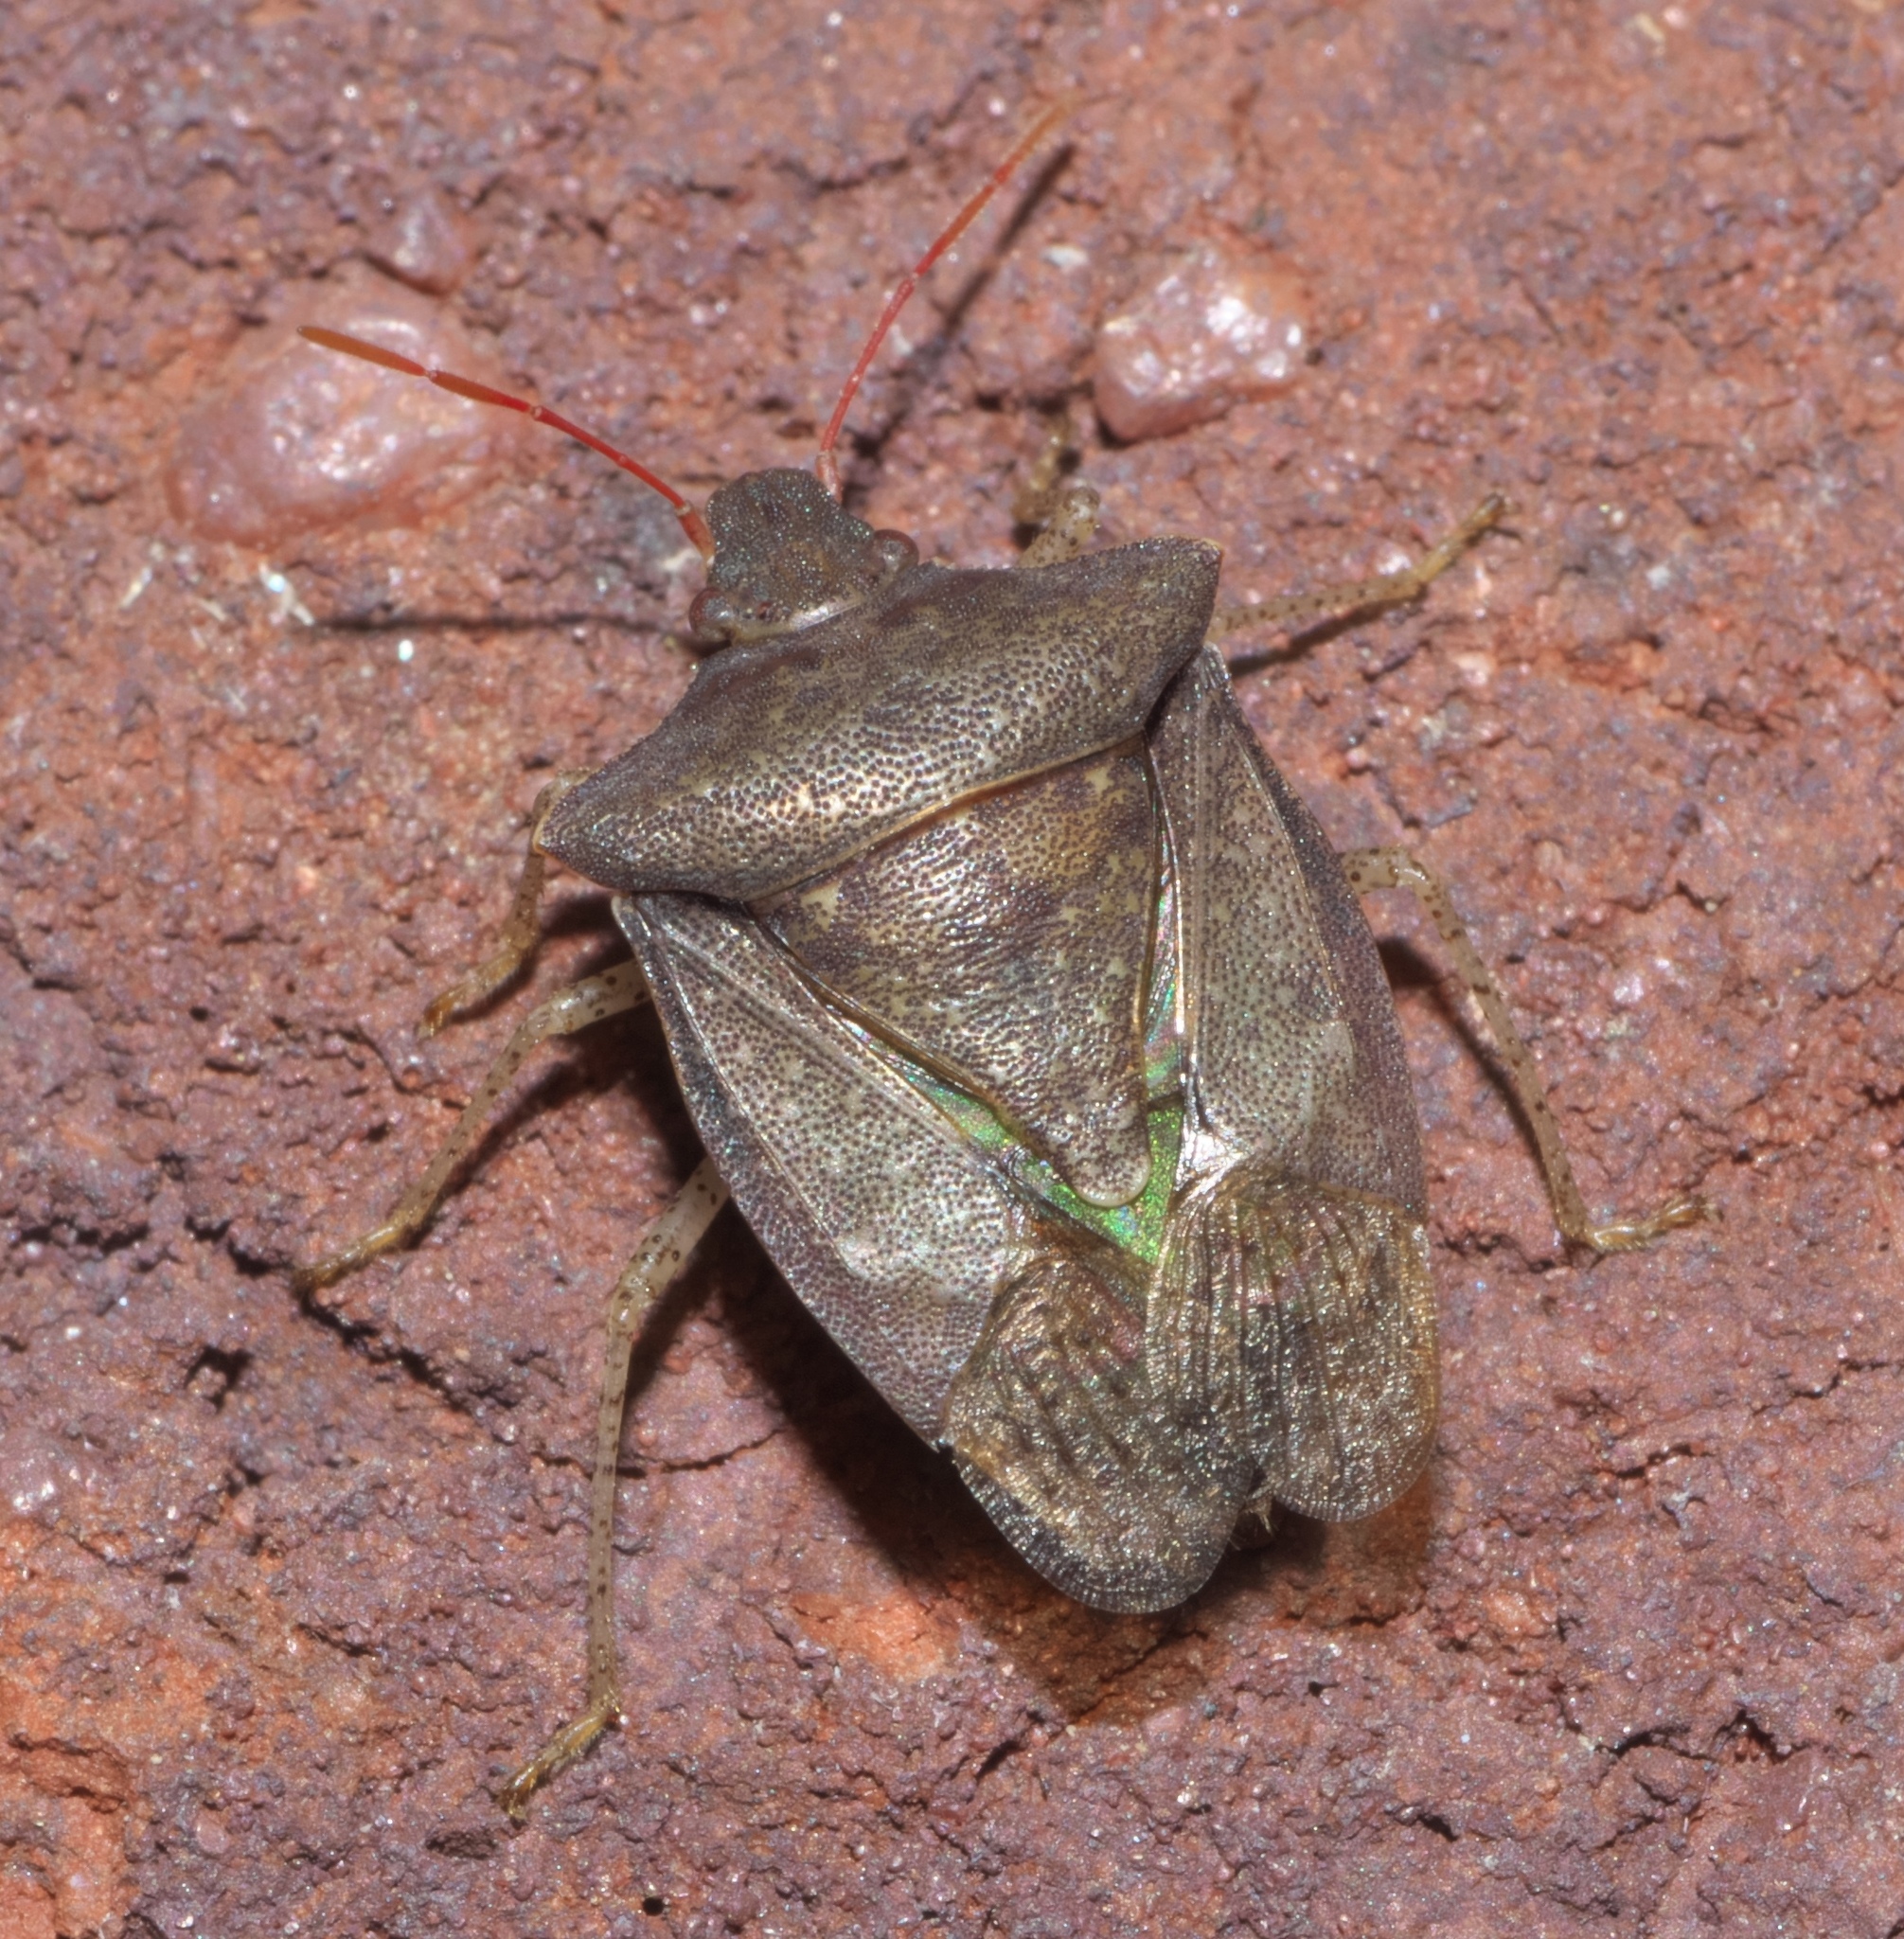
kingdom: Animalia
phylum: Arthropoda
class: Insecta
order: Hemiptera
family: Pentatomidae
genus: Euschistus
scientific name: Euschistus servus
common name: Brown stink bug
